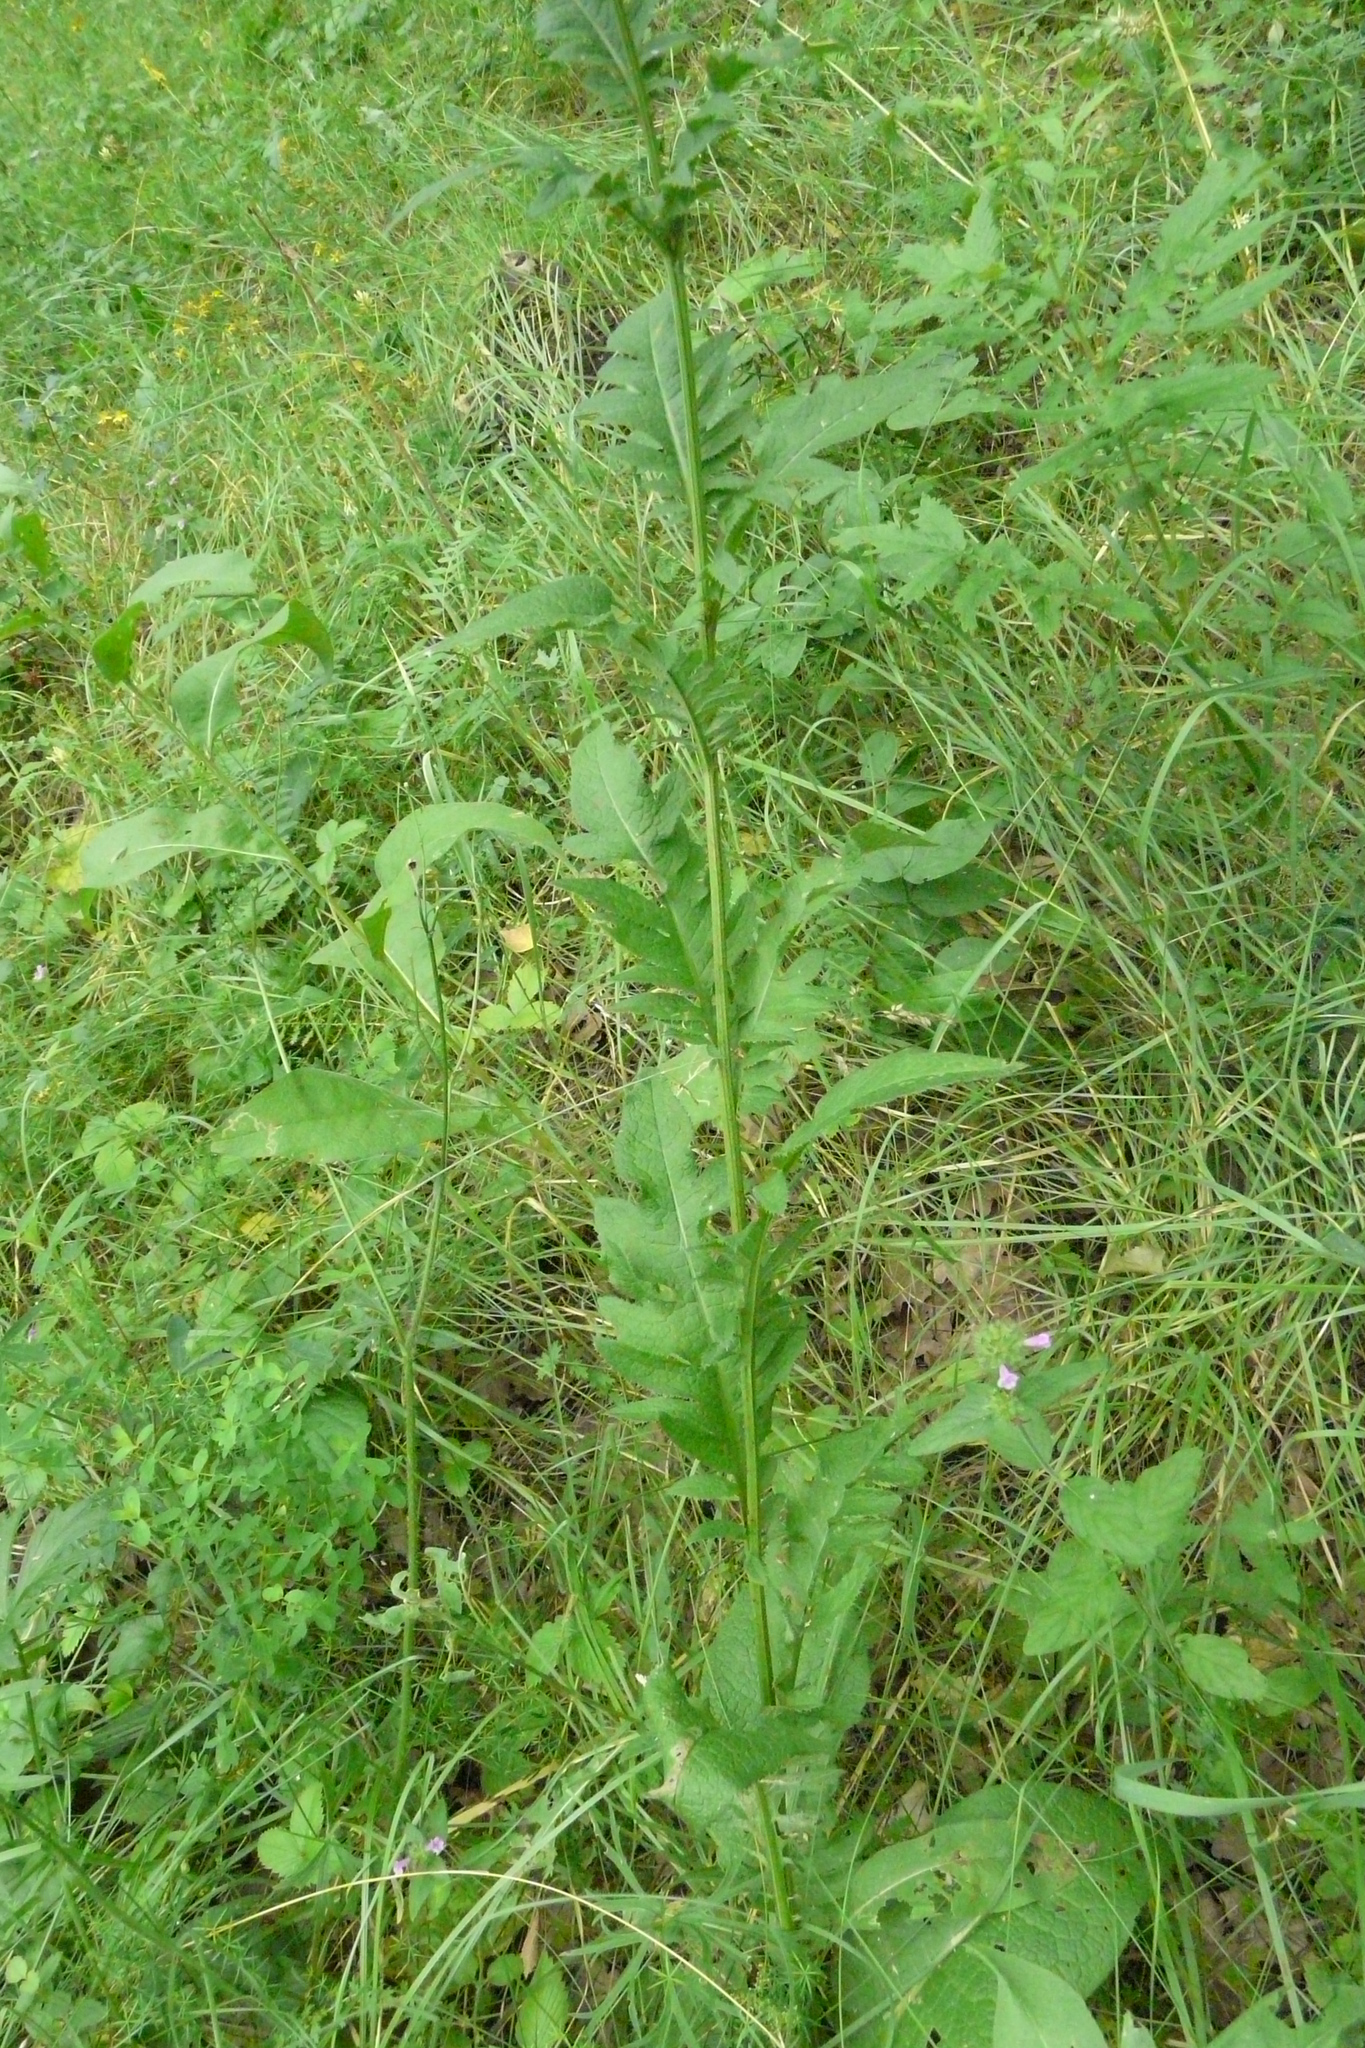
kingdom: Plantae
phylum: Tracheophyta
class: Magnoliopsida
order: Asterales
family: Asteraceae
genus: Serratula
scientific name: Serratula tinctoria
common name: Saw-wort
